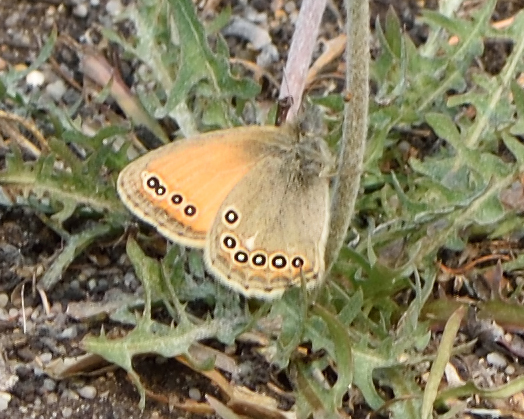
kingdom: Animalia
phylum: Arthropoda
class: Insecta
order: Lepidoptera
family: Nymphalidae
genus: Coenonympha
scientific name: Coenonympha amaryllis
